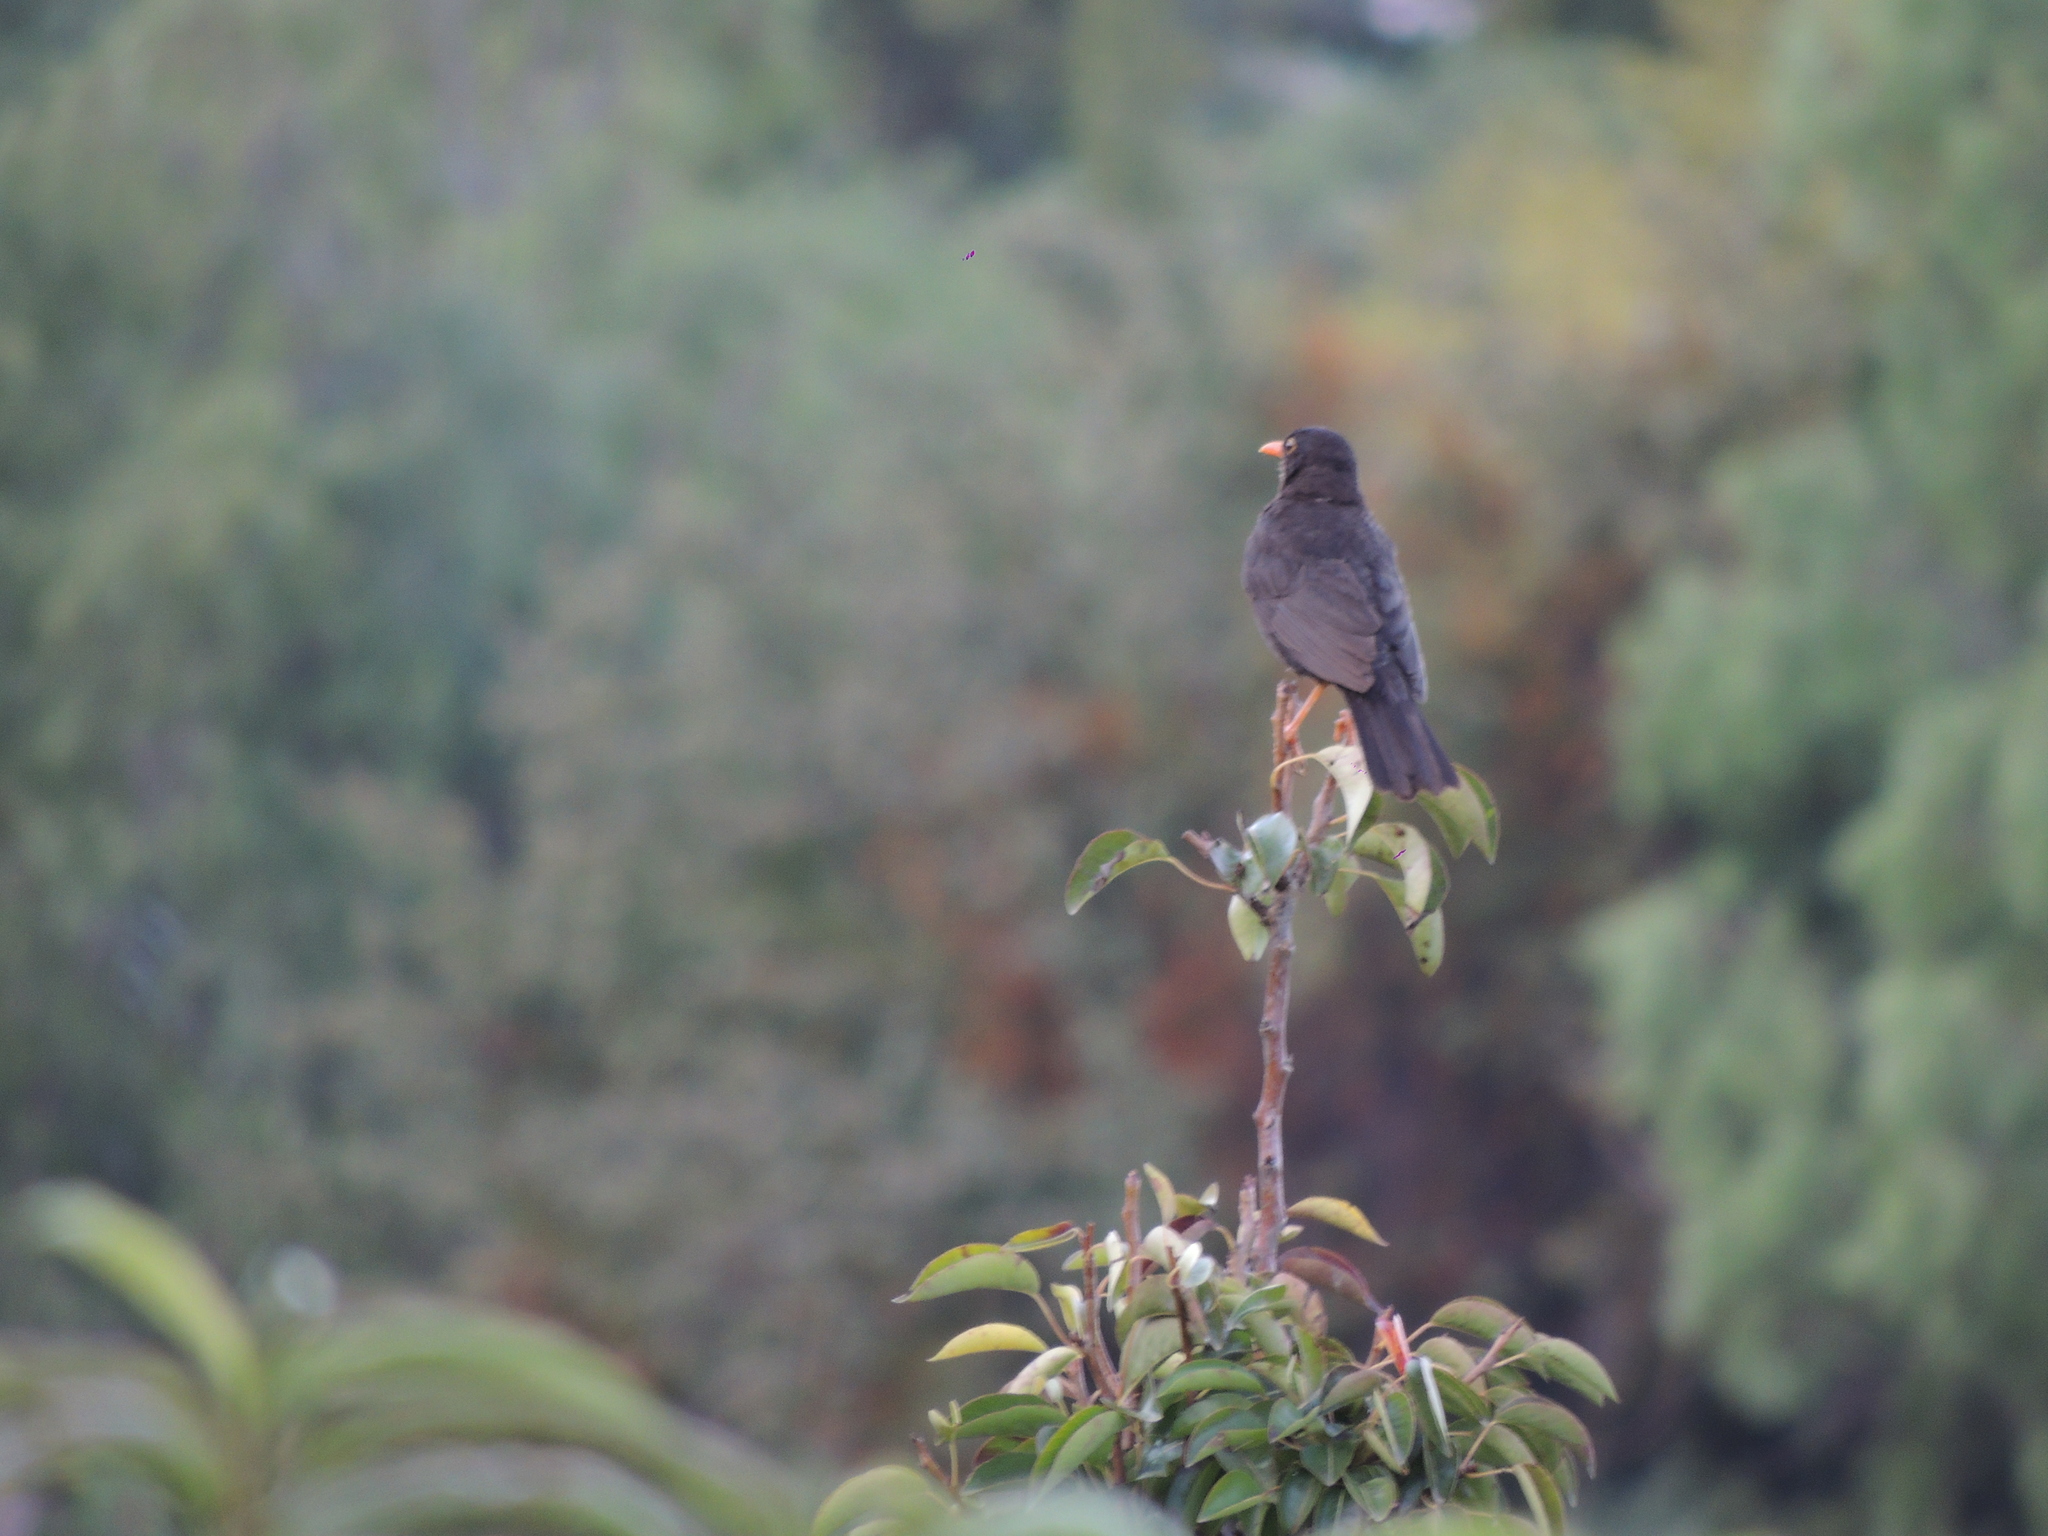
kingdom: Animalia
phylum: Chordata
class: Aves
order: Passeriformes
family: Turdidae
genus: Turdus
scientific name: Turdus chiguanco
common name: Chiguanco thrush
